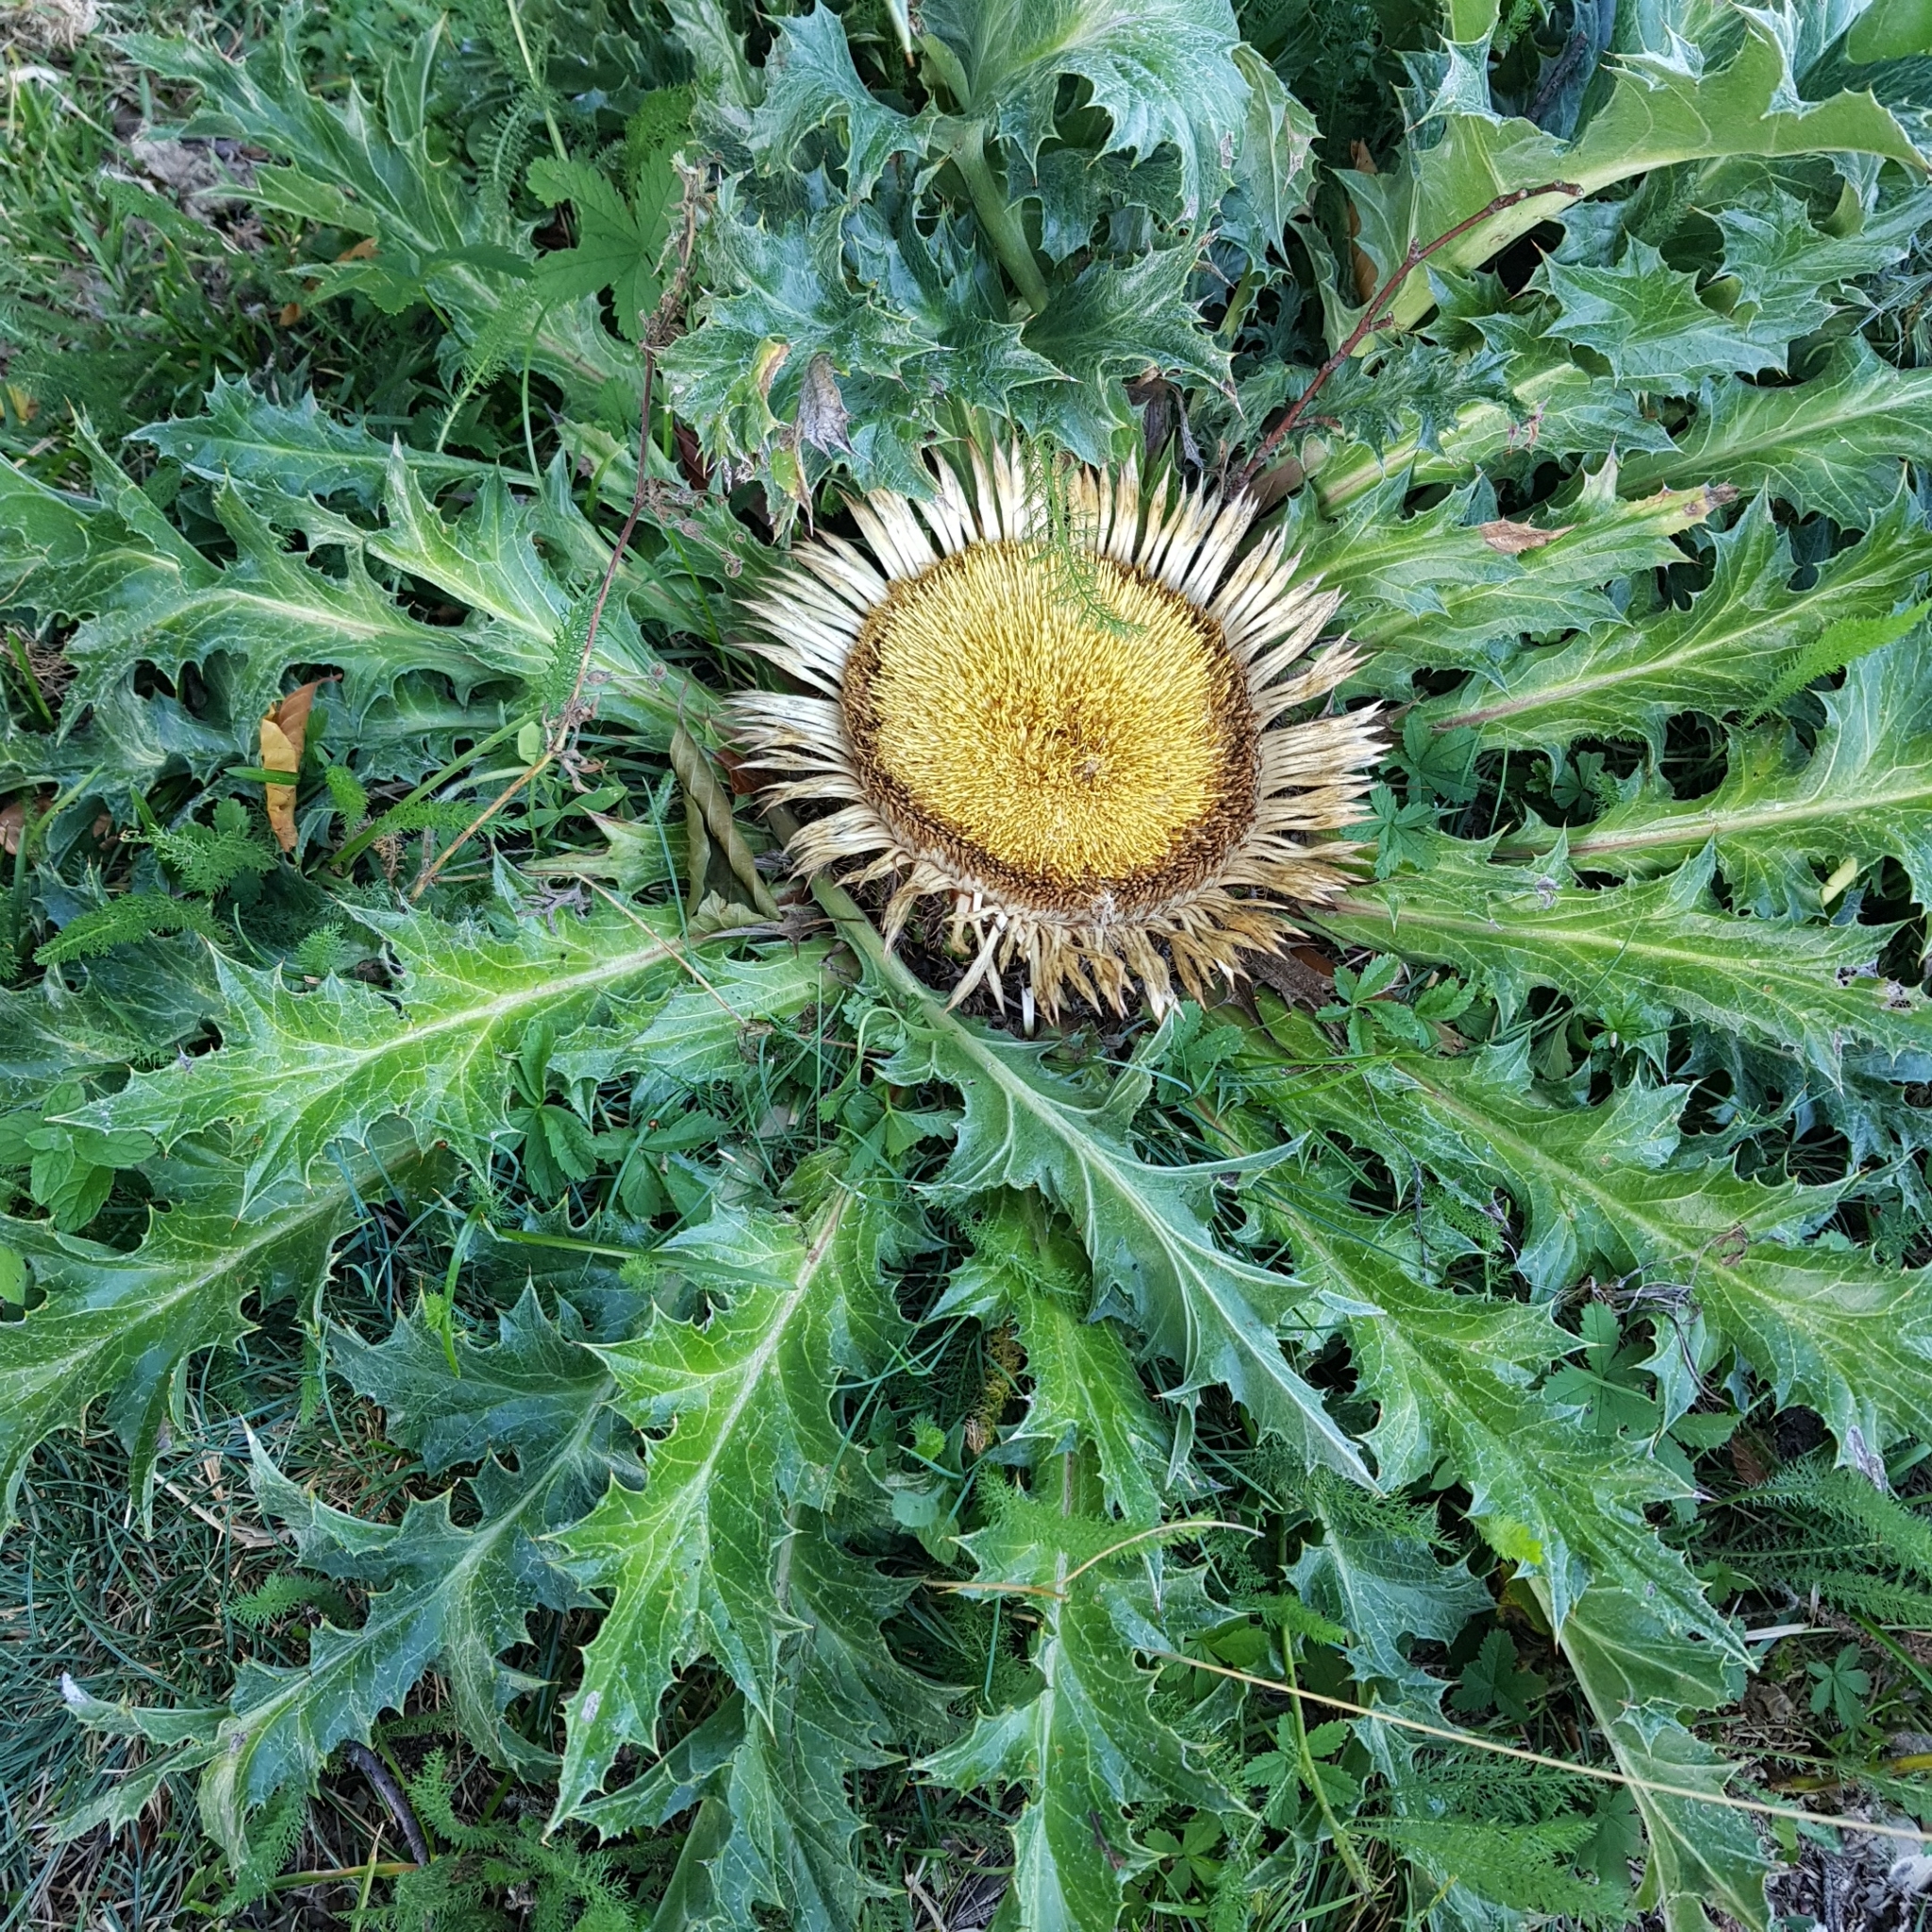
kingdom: Plantae
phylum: Tracheophyta
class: Magnoliopsida
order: Asterales
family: Asteraceae
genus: Carlina
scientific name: Carlina acanthifolia
